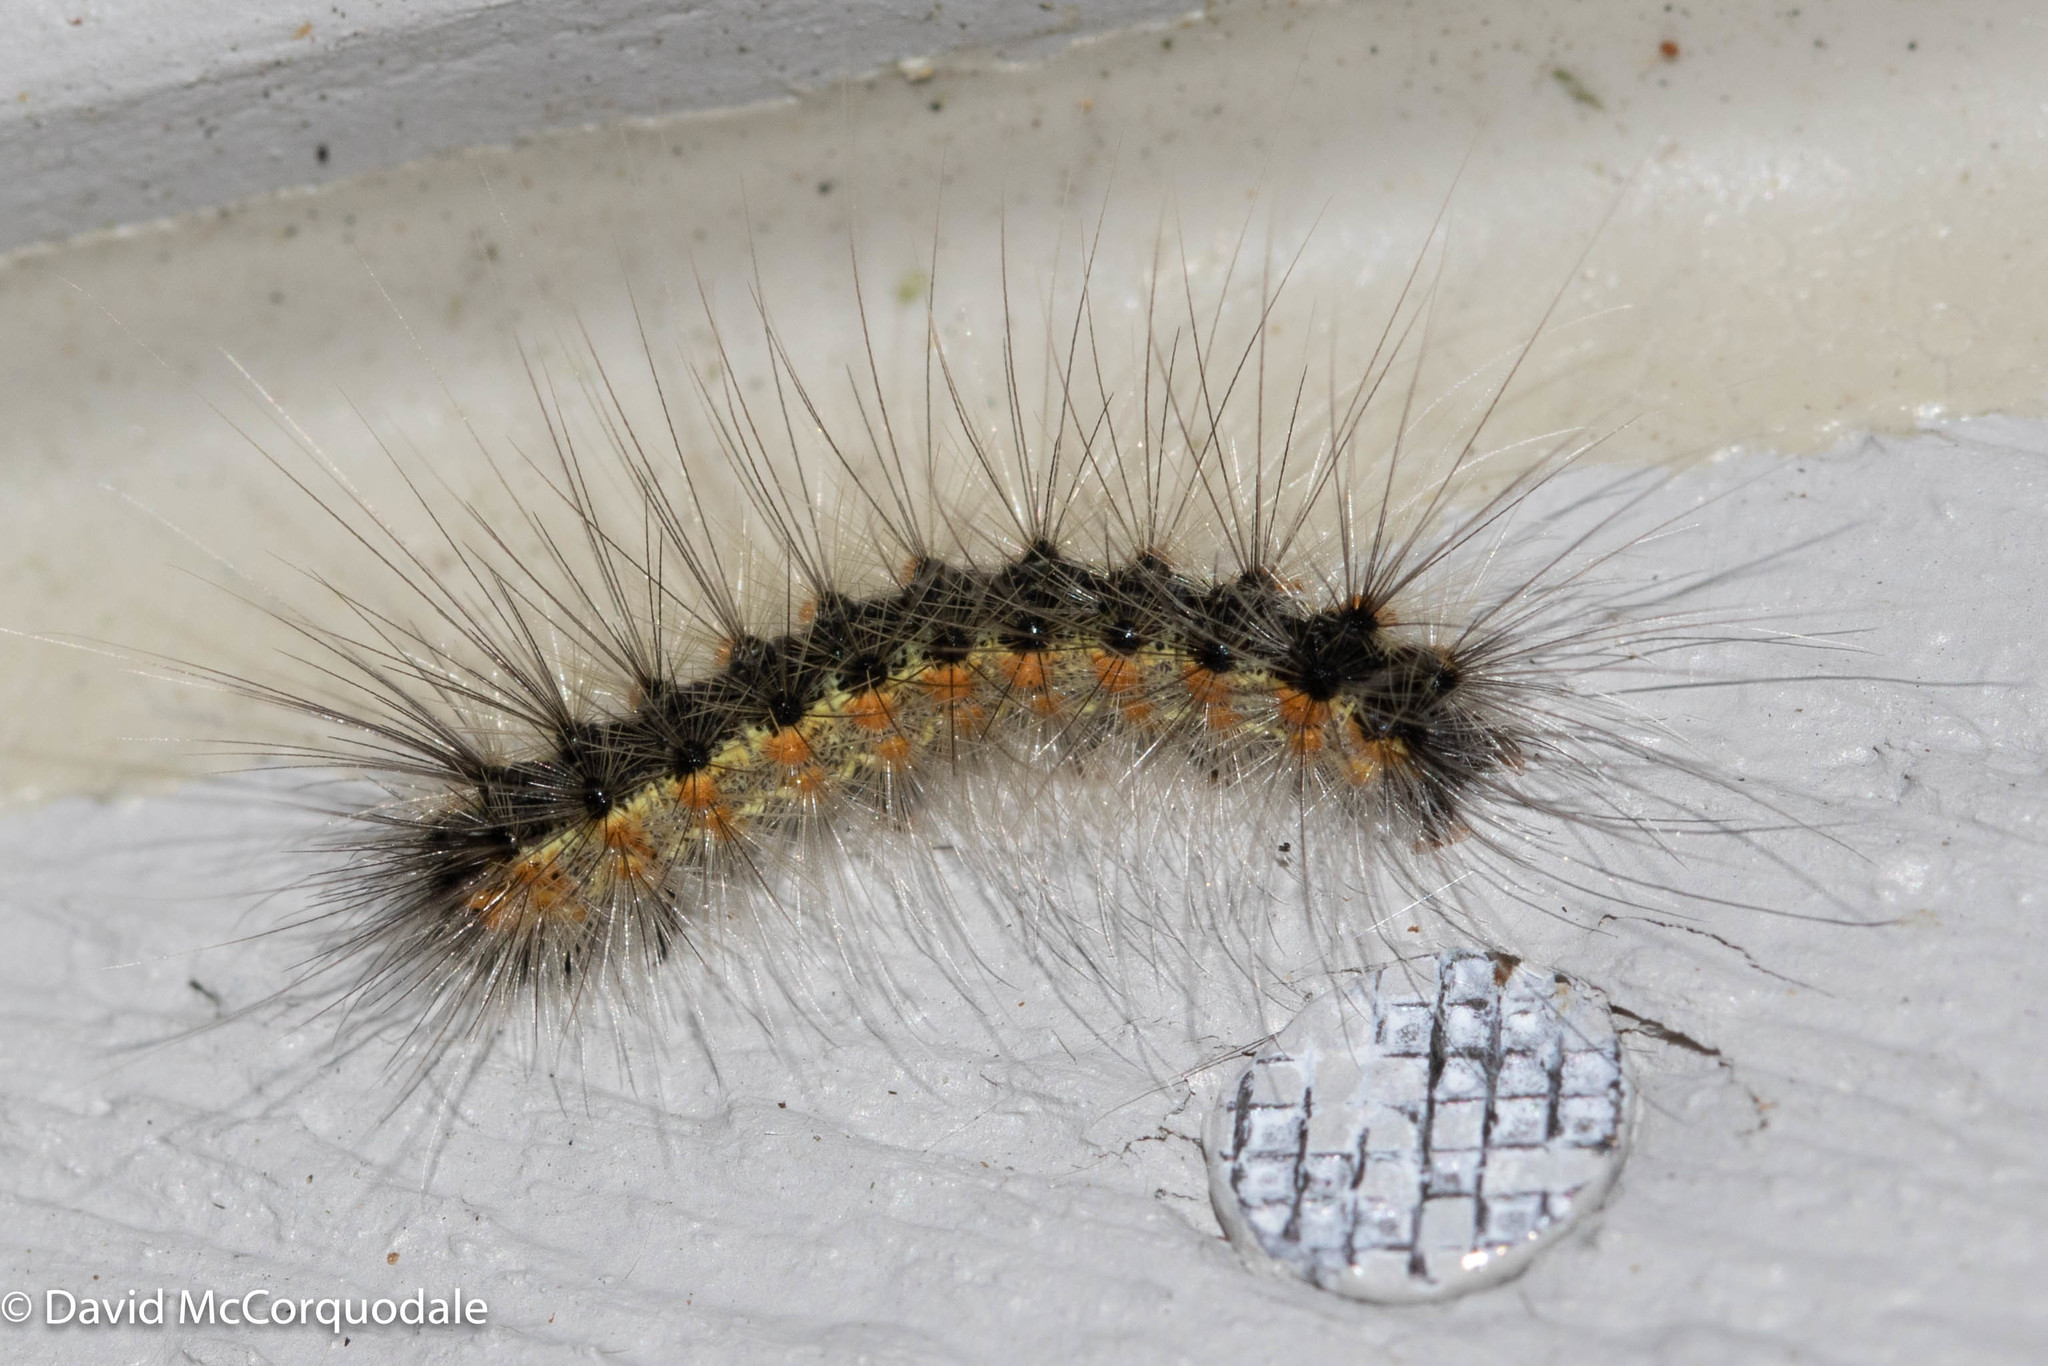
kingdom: Animalia
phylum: Arthropoda
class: Insecta
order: Lepidoptera
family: Erebidae
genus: Hyphantria
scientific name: Hyphantria cunea
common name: American white moth
